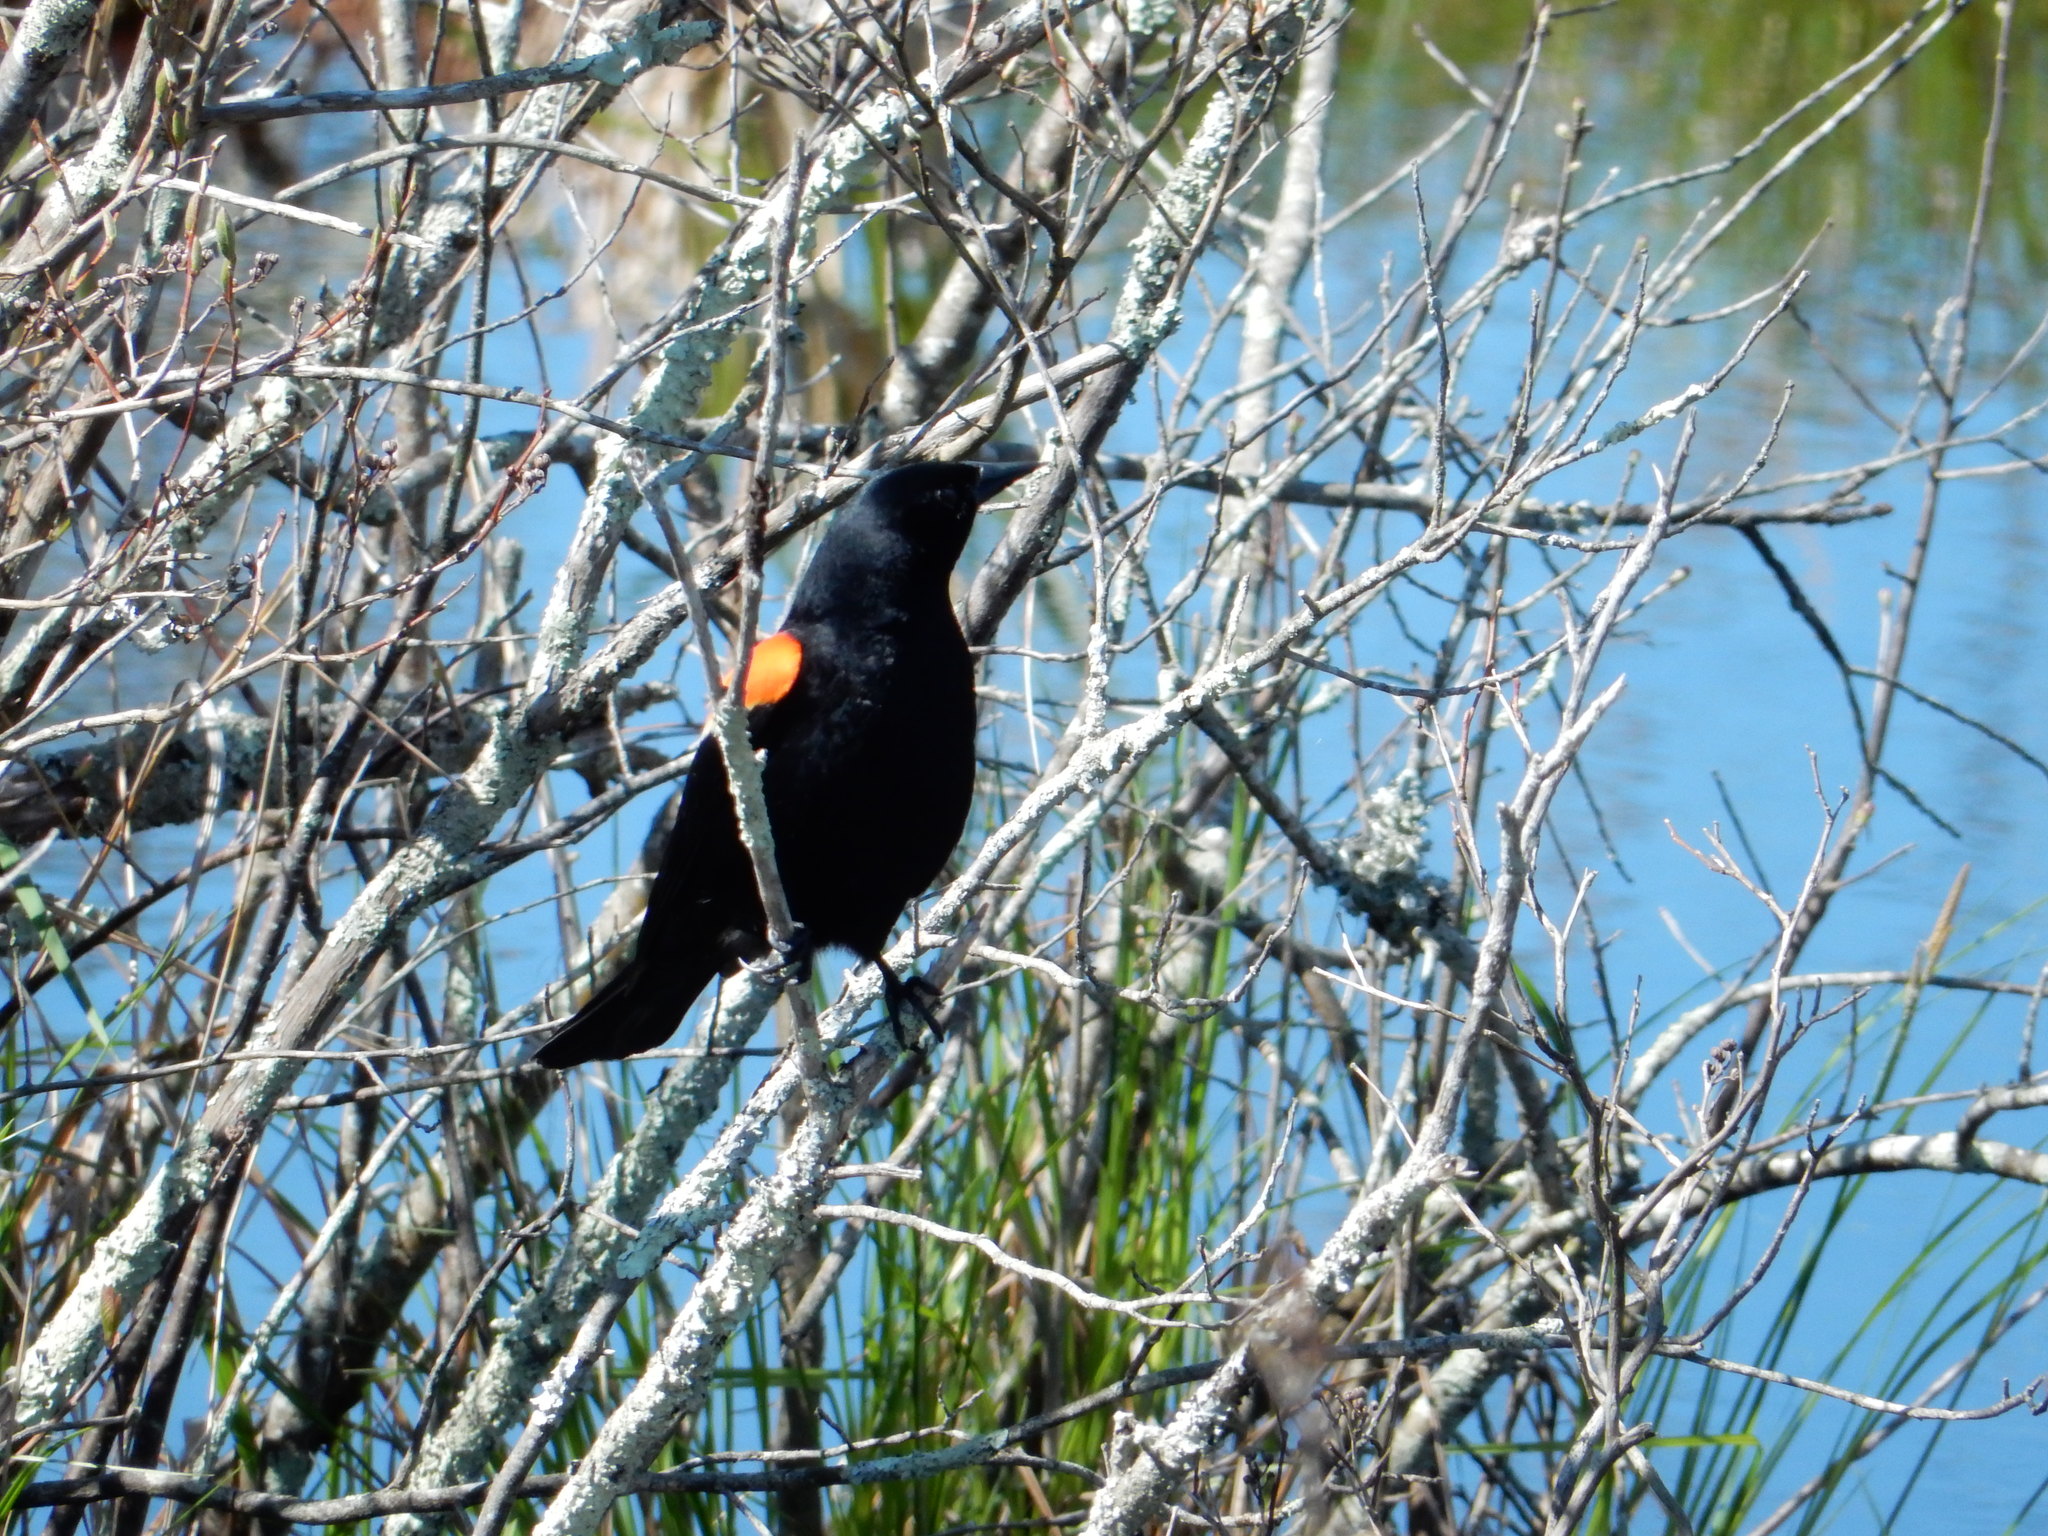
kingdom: Animalia
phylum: Chordata
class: Aves
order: Passeriformes
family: Icteridae
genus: Agelaius
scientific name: Agelaius phoeniceus
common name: Red-winged blackbird
